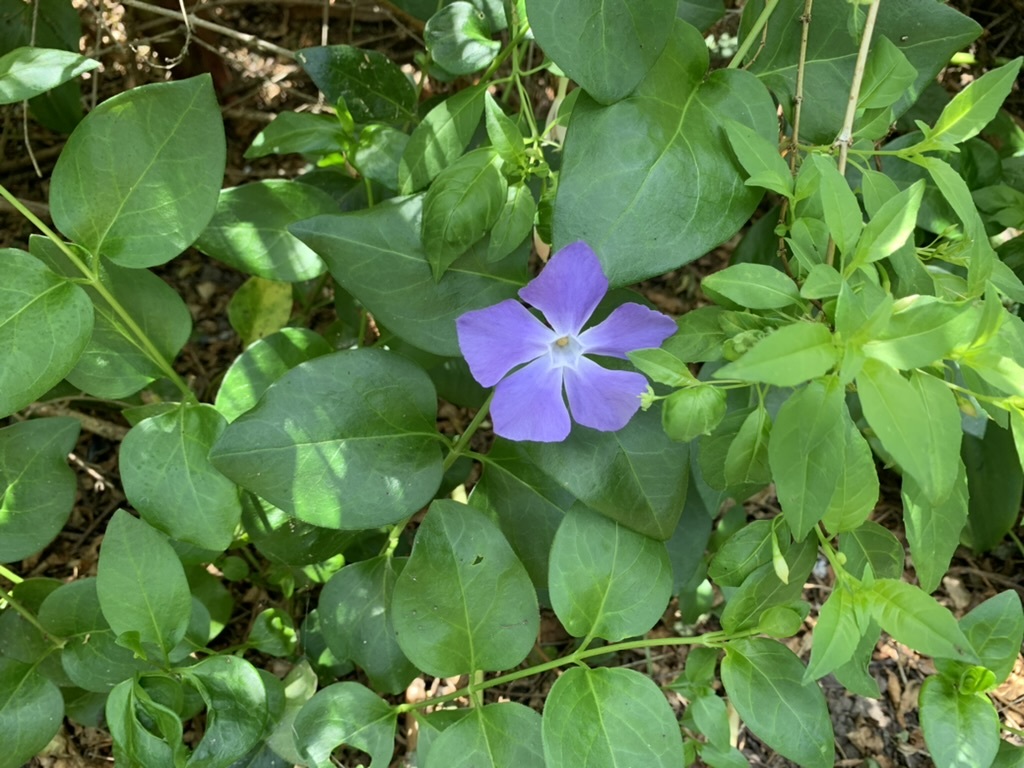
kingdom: Plantae
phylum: Tracheophyta
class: Magnoliopsida
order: Gentianales
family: Apocynaceae
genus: Vinca
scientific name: Vinca major
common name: Greater periwinkle
